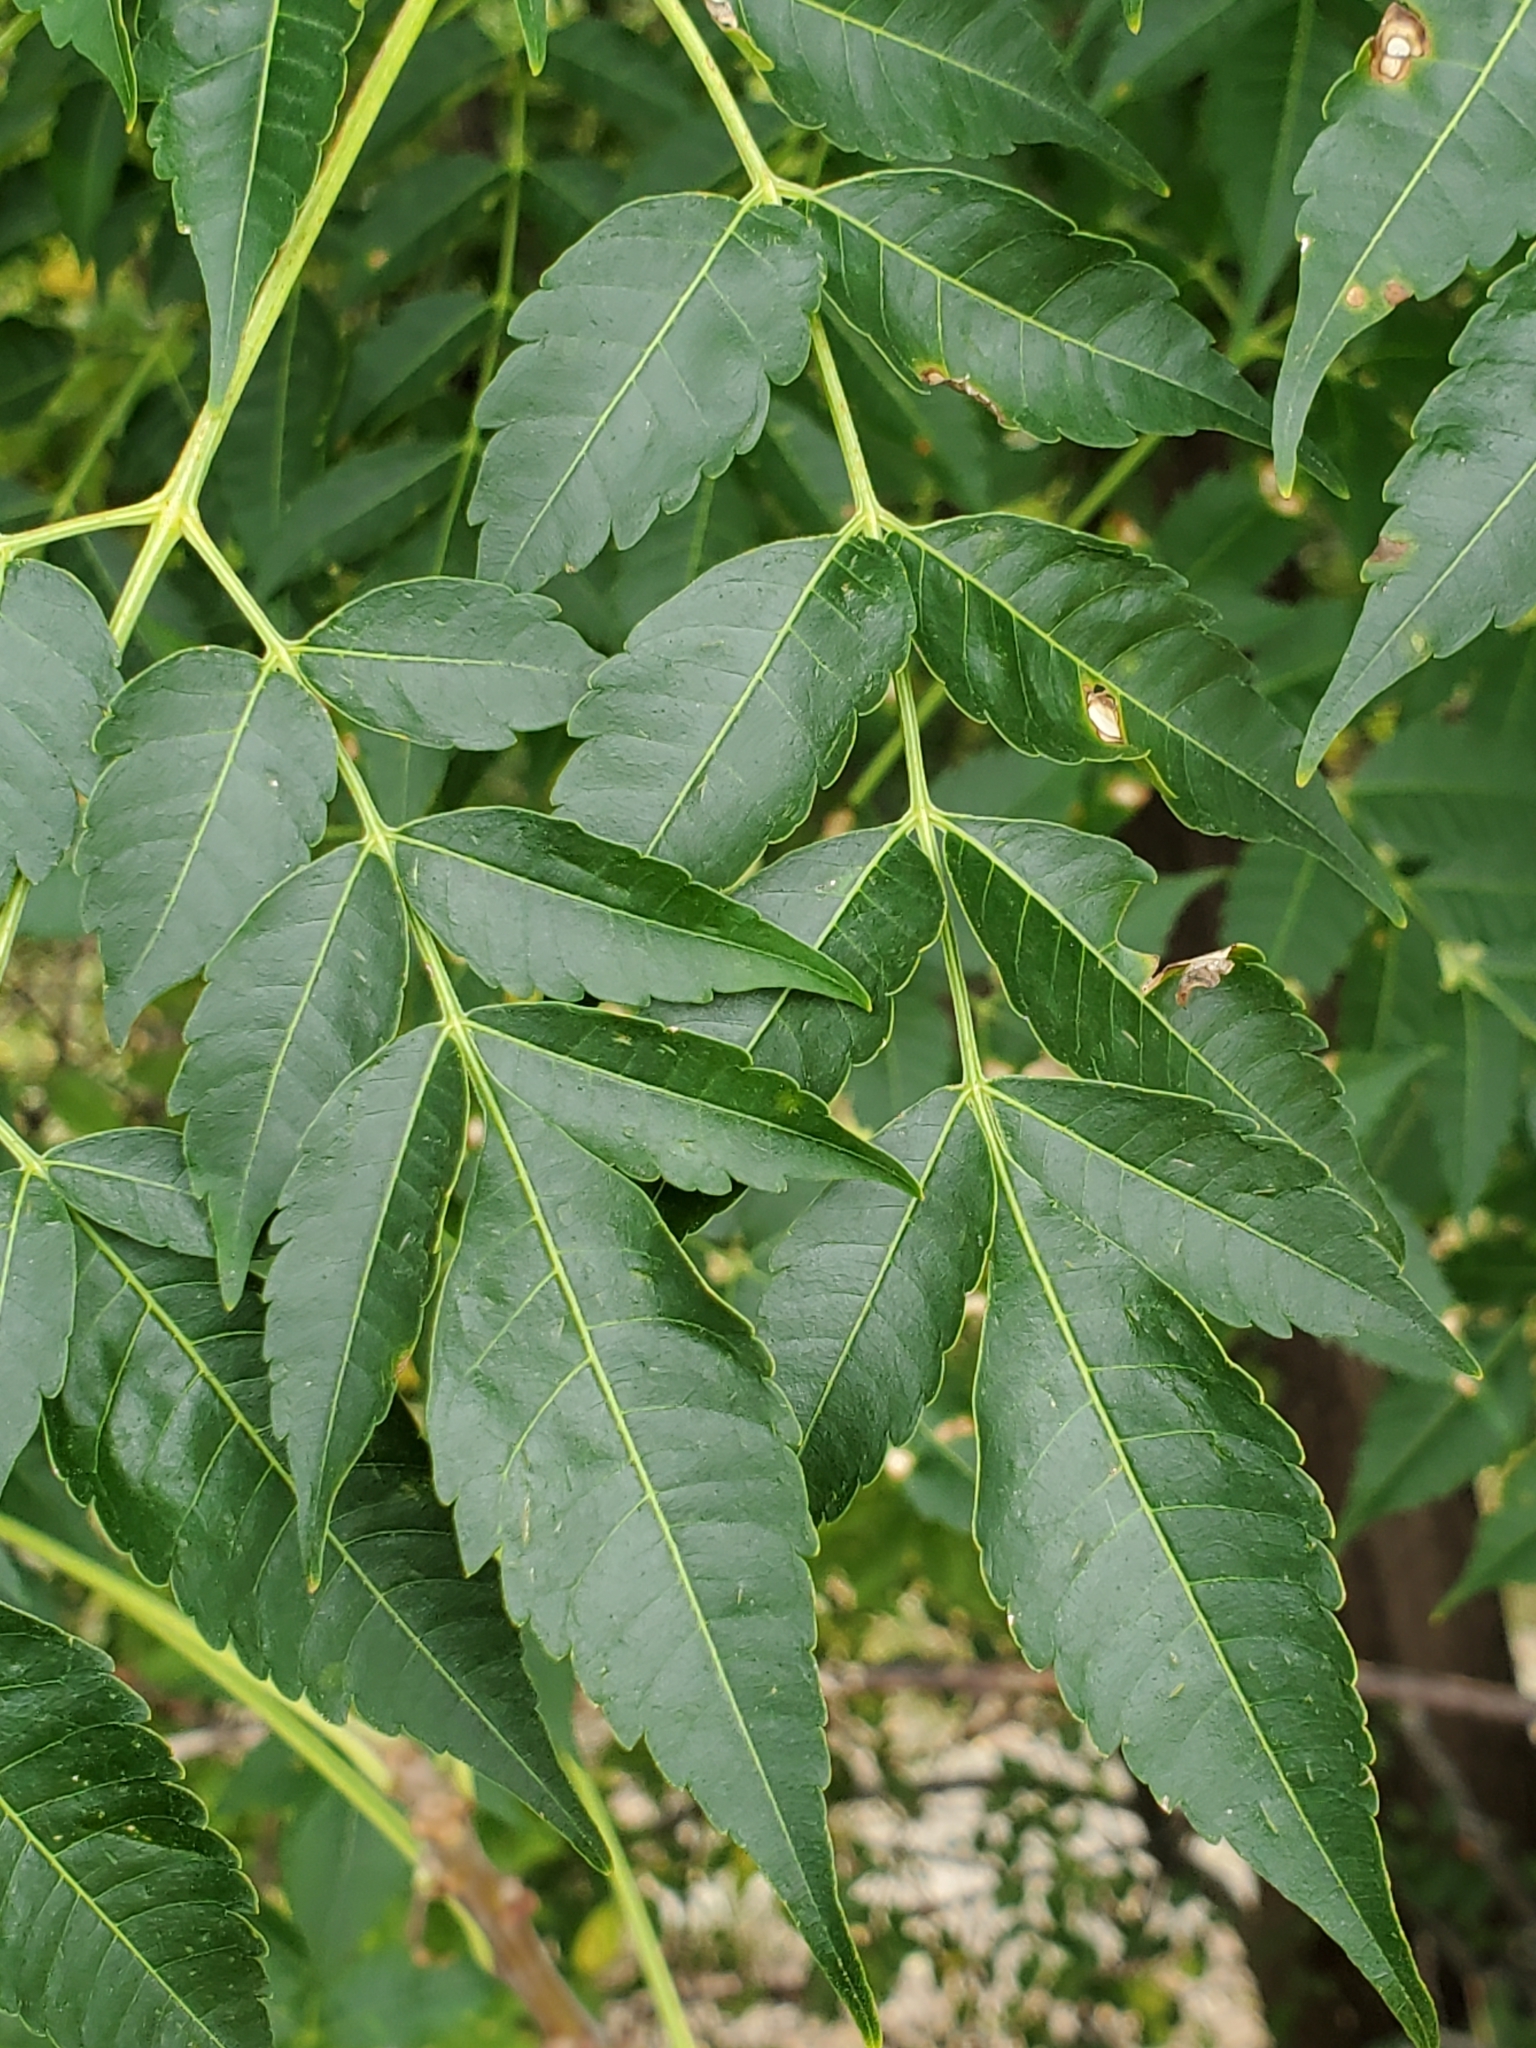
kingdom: Plantae
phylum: Tracheophyta
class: Magnoliopsida
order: Sapindales
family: Meliaceae
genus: Melia
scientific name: Melia azedarach
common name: Chinaberrytree
